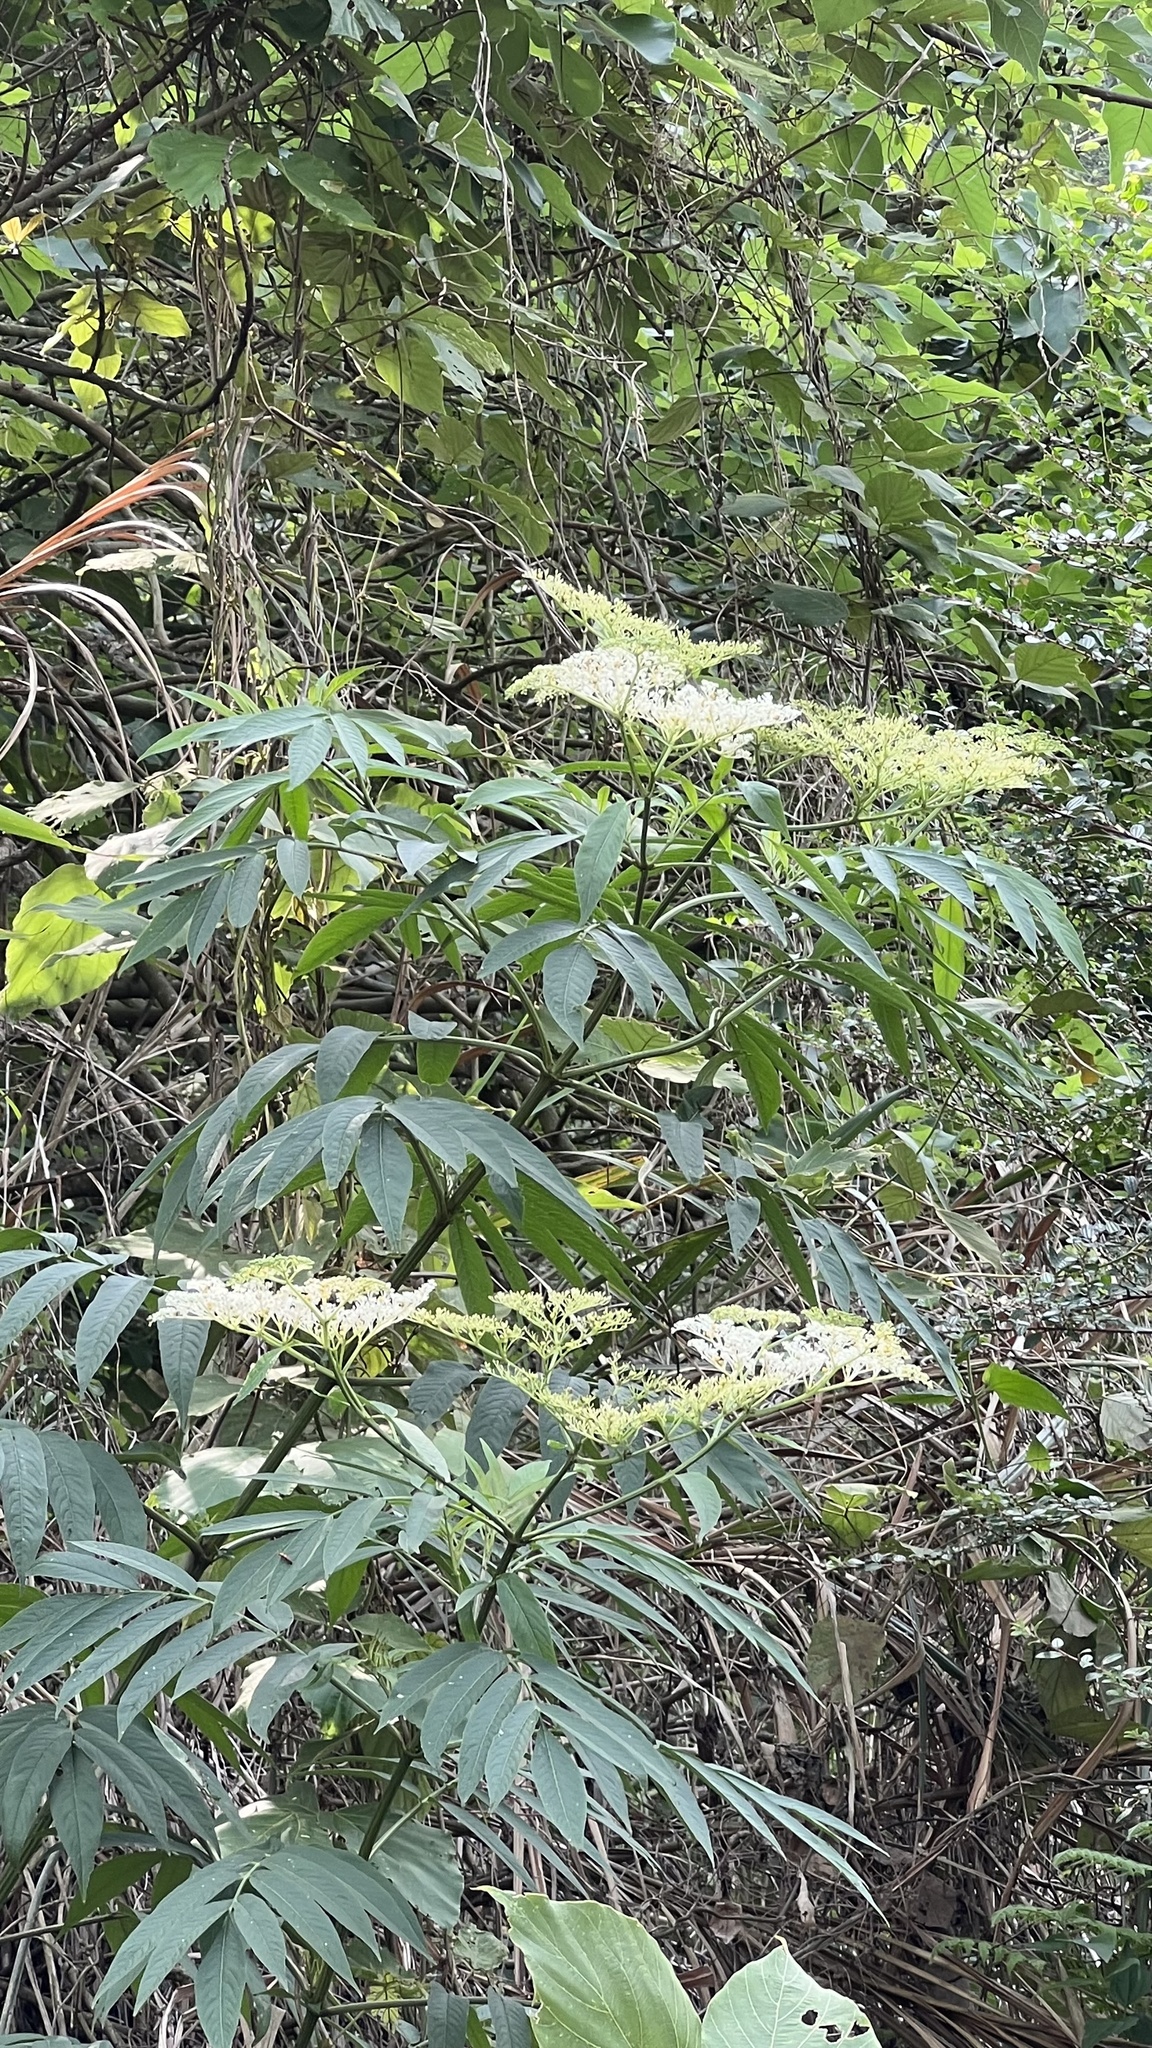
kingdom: Plantae
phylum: Tracheophyta
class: Magnoliopsida
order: Dipsacales
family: Viburnaceae
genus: Sambucus
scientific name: Sambucus javanica
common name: Chinese elder
